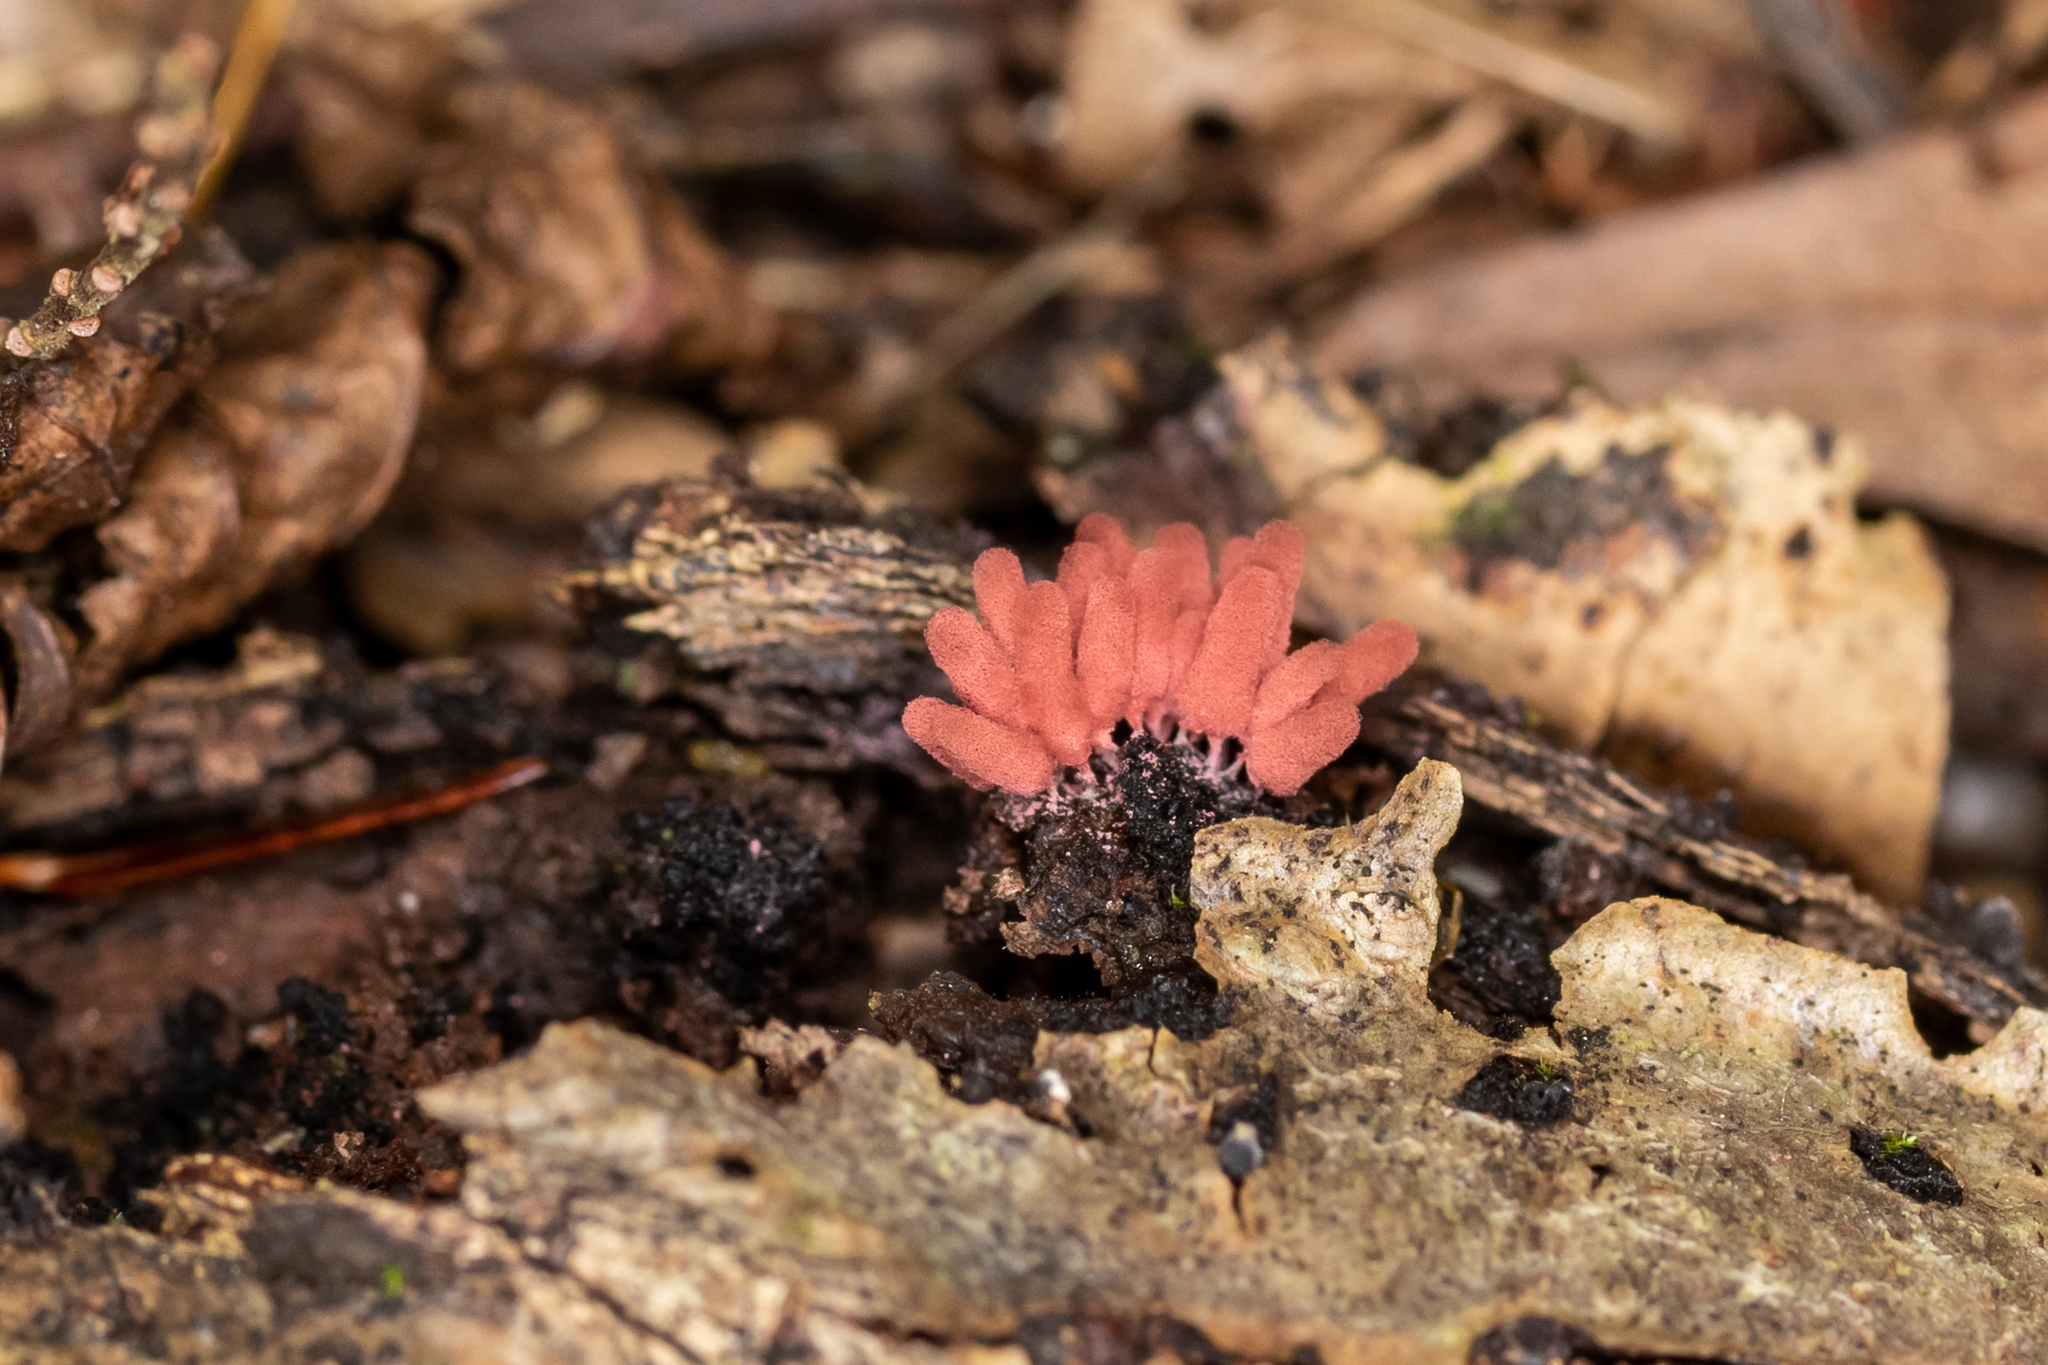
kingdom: Protozoa
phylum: Mycetozoa
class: Myxomycetes
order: Trichiales
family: Arcyriaceae
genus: Arcyria
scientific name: Arcyria denudata
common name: Carnival candy slime mold
